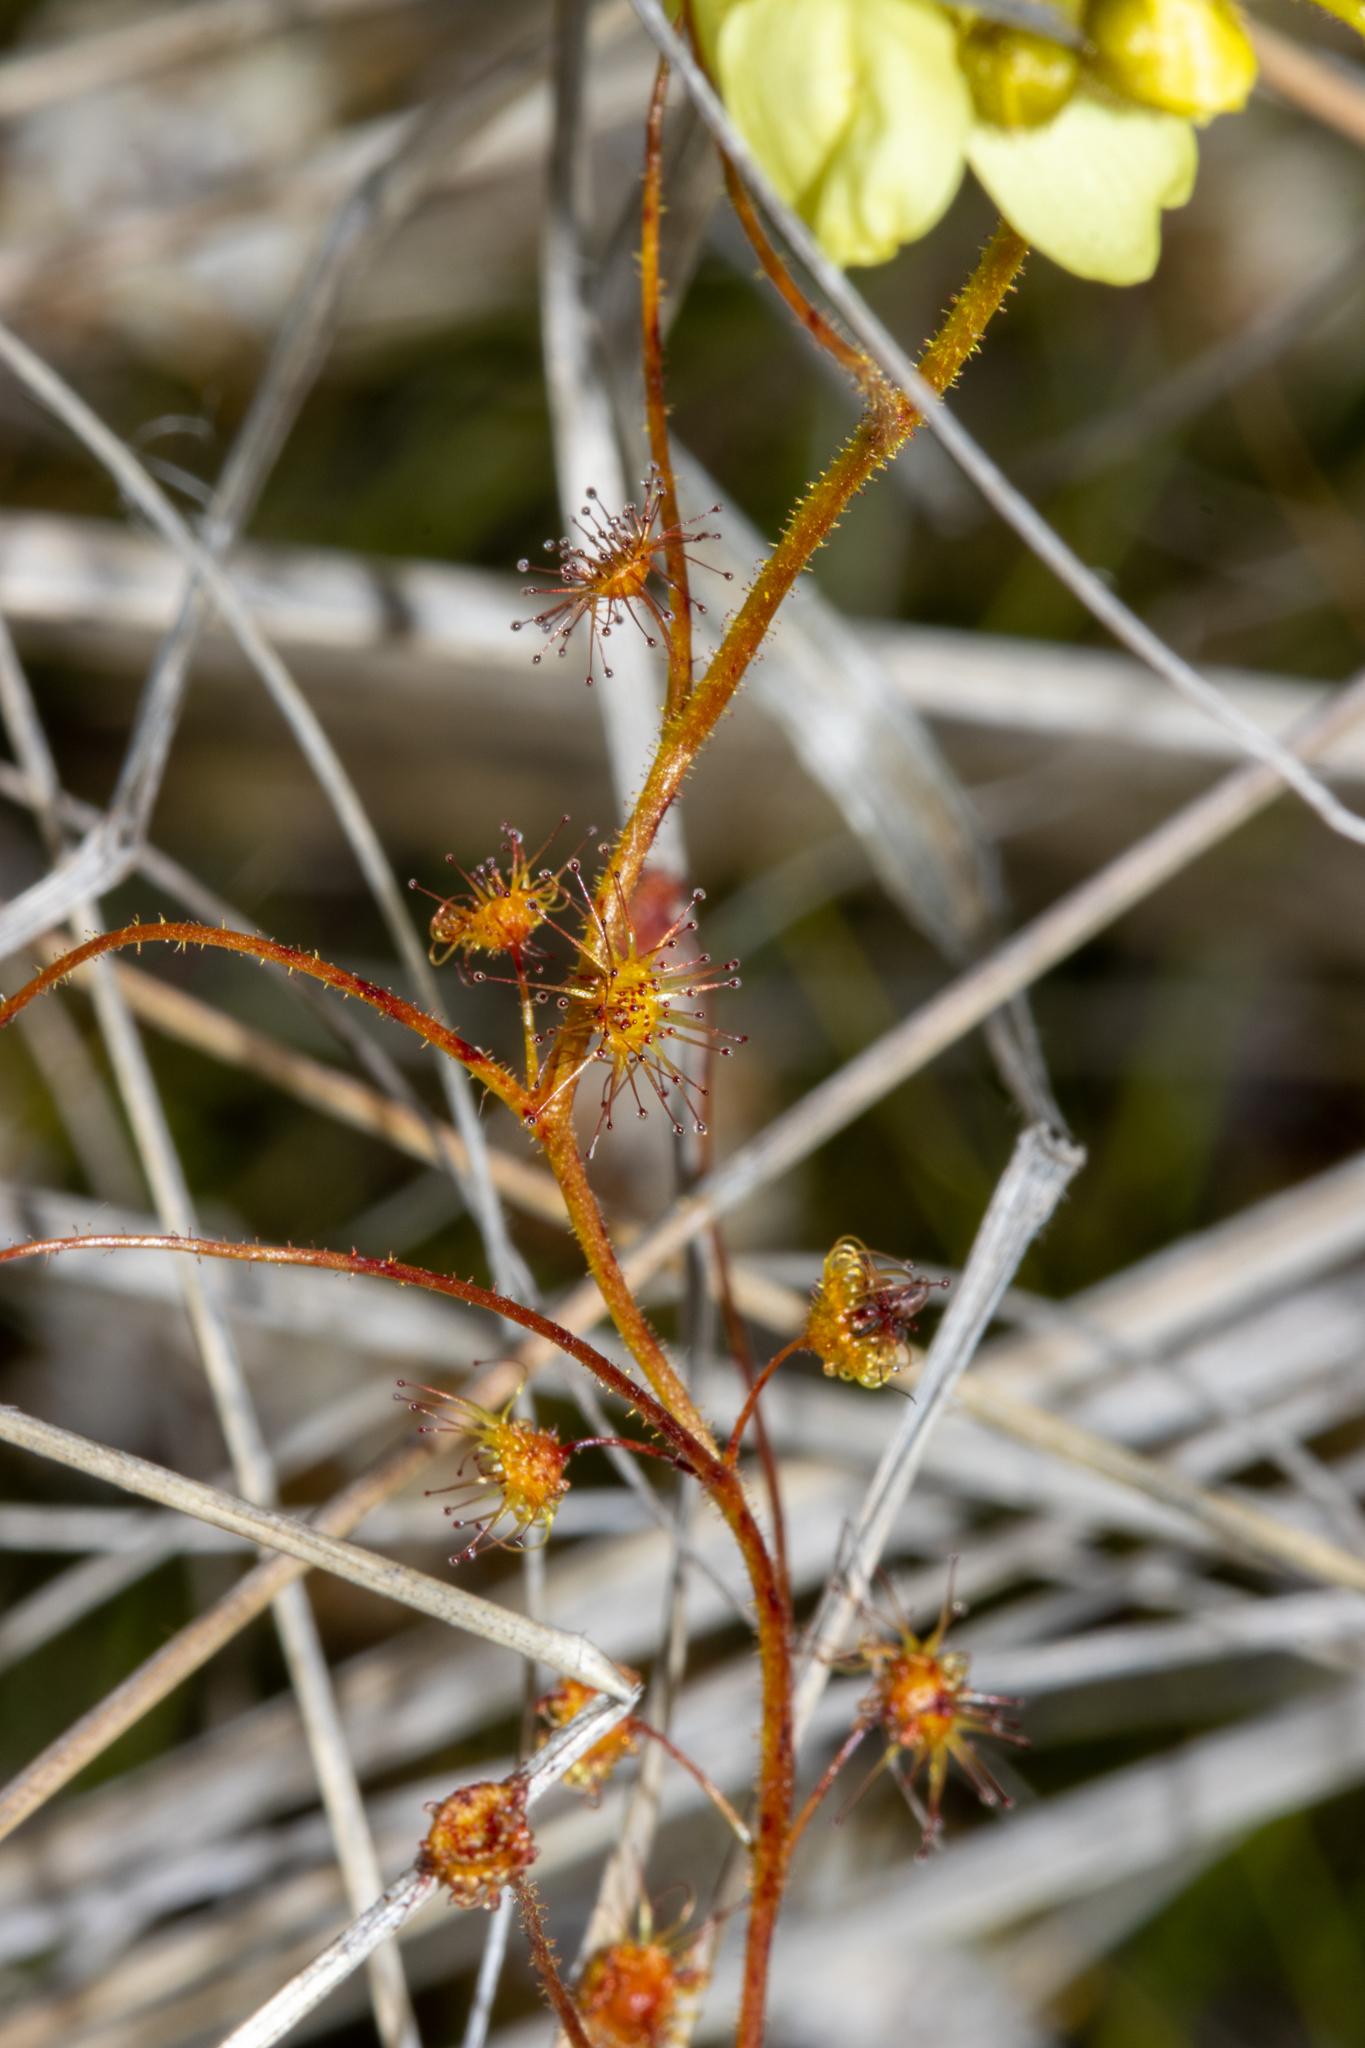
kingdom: Plantae
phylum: Tracheophyta
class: Magnoliopsida
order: Caryophyllales
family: Droseraceae
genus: Drosera
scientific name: Drosera subhirtella
